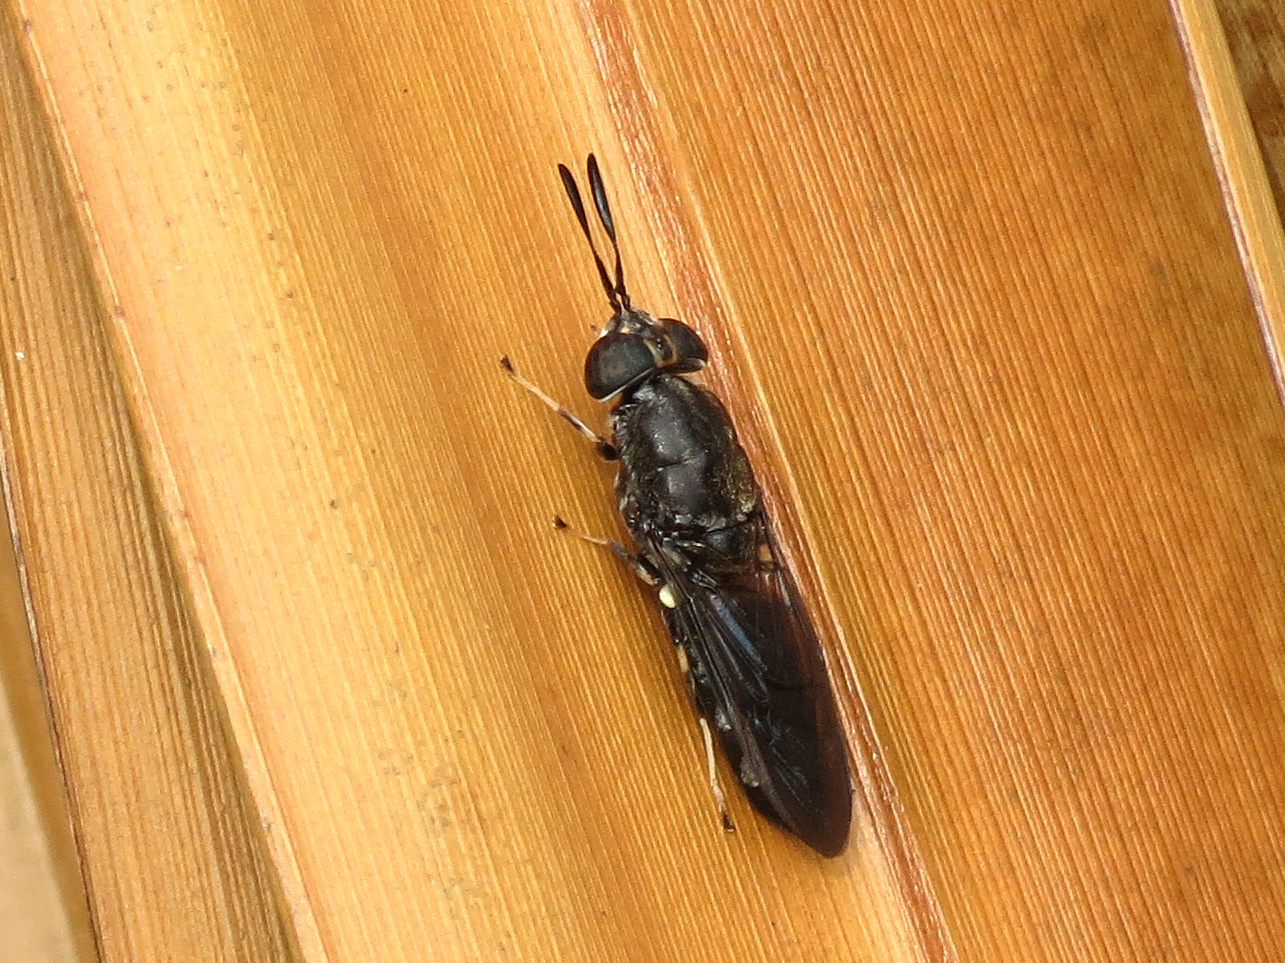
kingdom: Animalia
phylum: Arthropoda
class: Insecta
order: Diptera
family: Stratiomyidae
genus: Hermetia
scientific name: Hermetia sexmaculata
